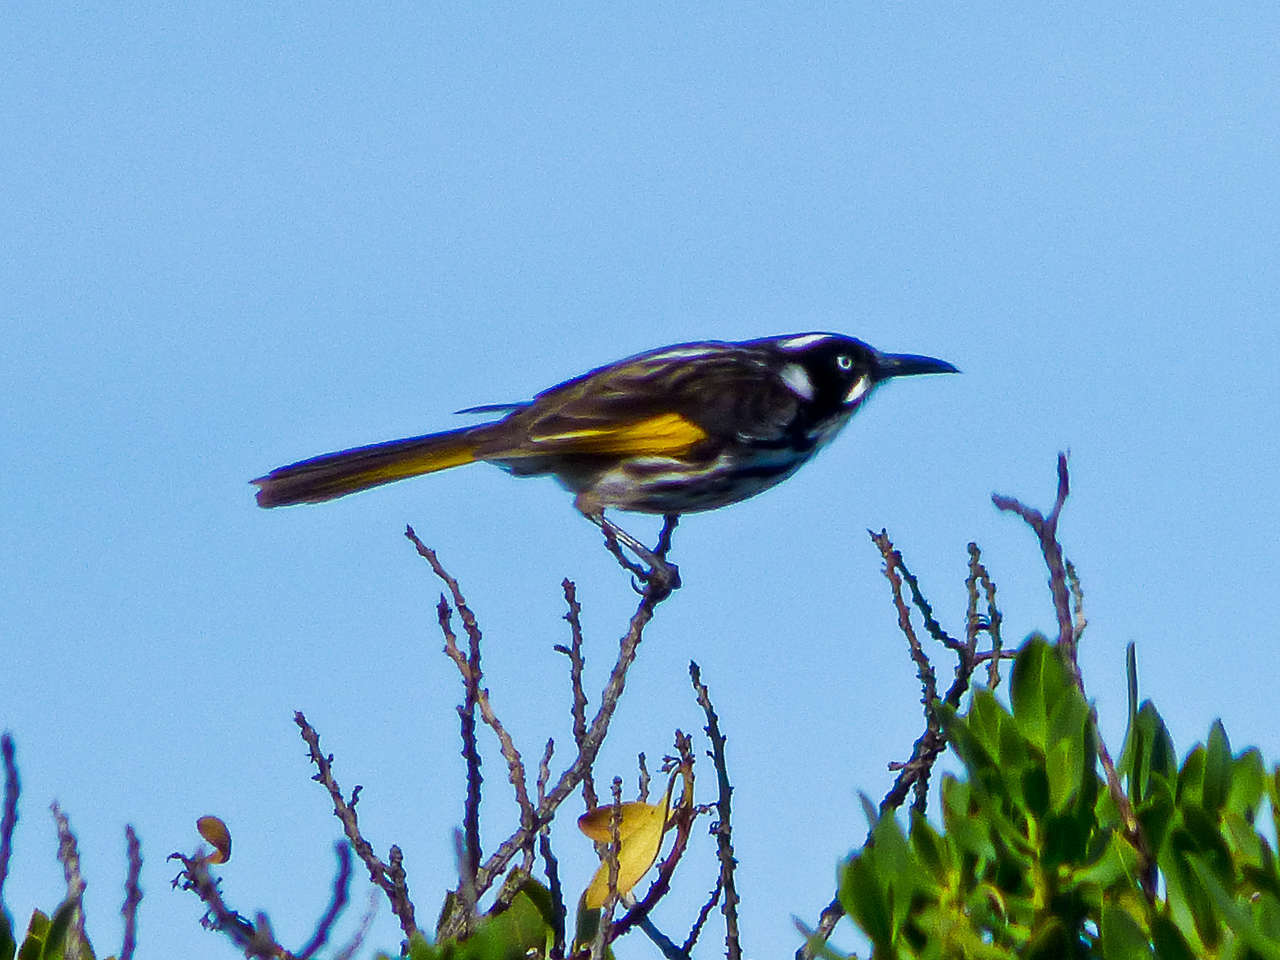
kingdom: Animalia
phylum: Chordata
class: Aves
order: Passeriformes
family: Meliphagidae
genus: Phylidonyris
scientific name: Phylidonyris novaehollandiae
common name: New holland honeyeater
